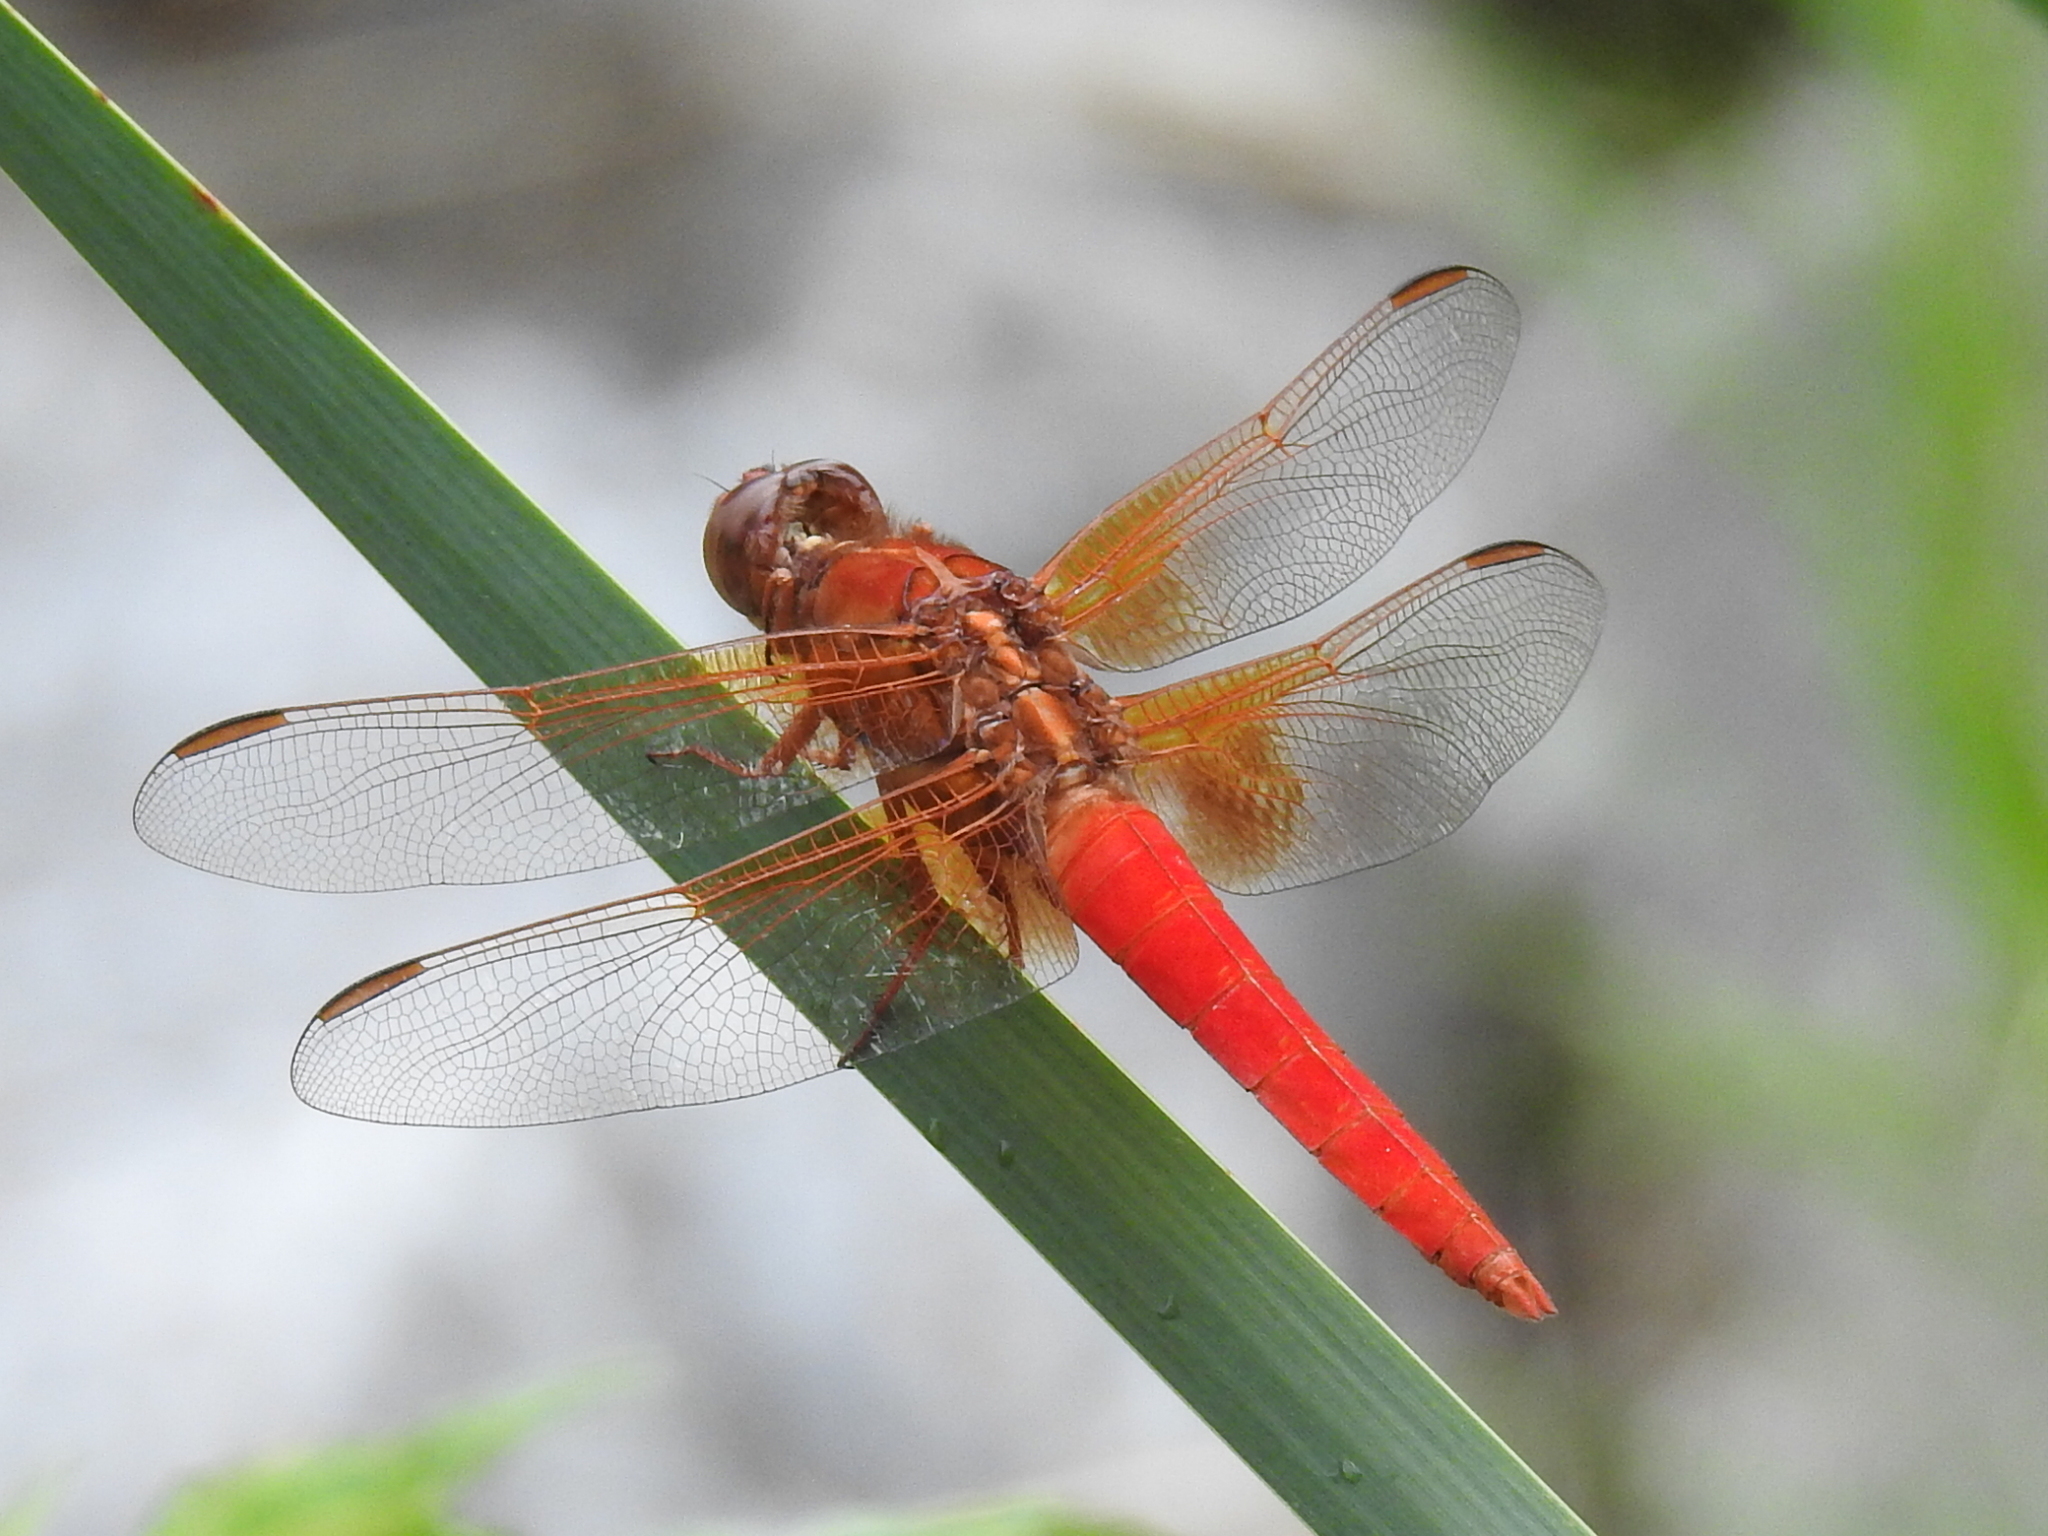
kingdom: Animalia
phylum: Arthropoda
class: Insecta
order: Odonata
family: Libellulidae
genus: Libellula
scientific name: Libellula croceipennis
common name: Neon skimmer
